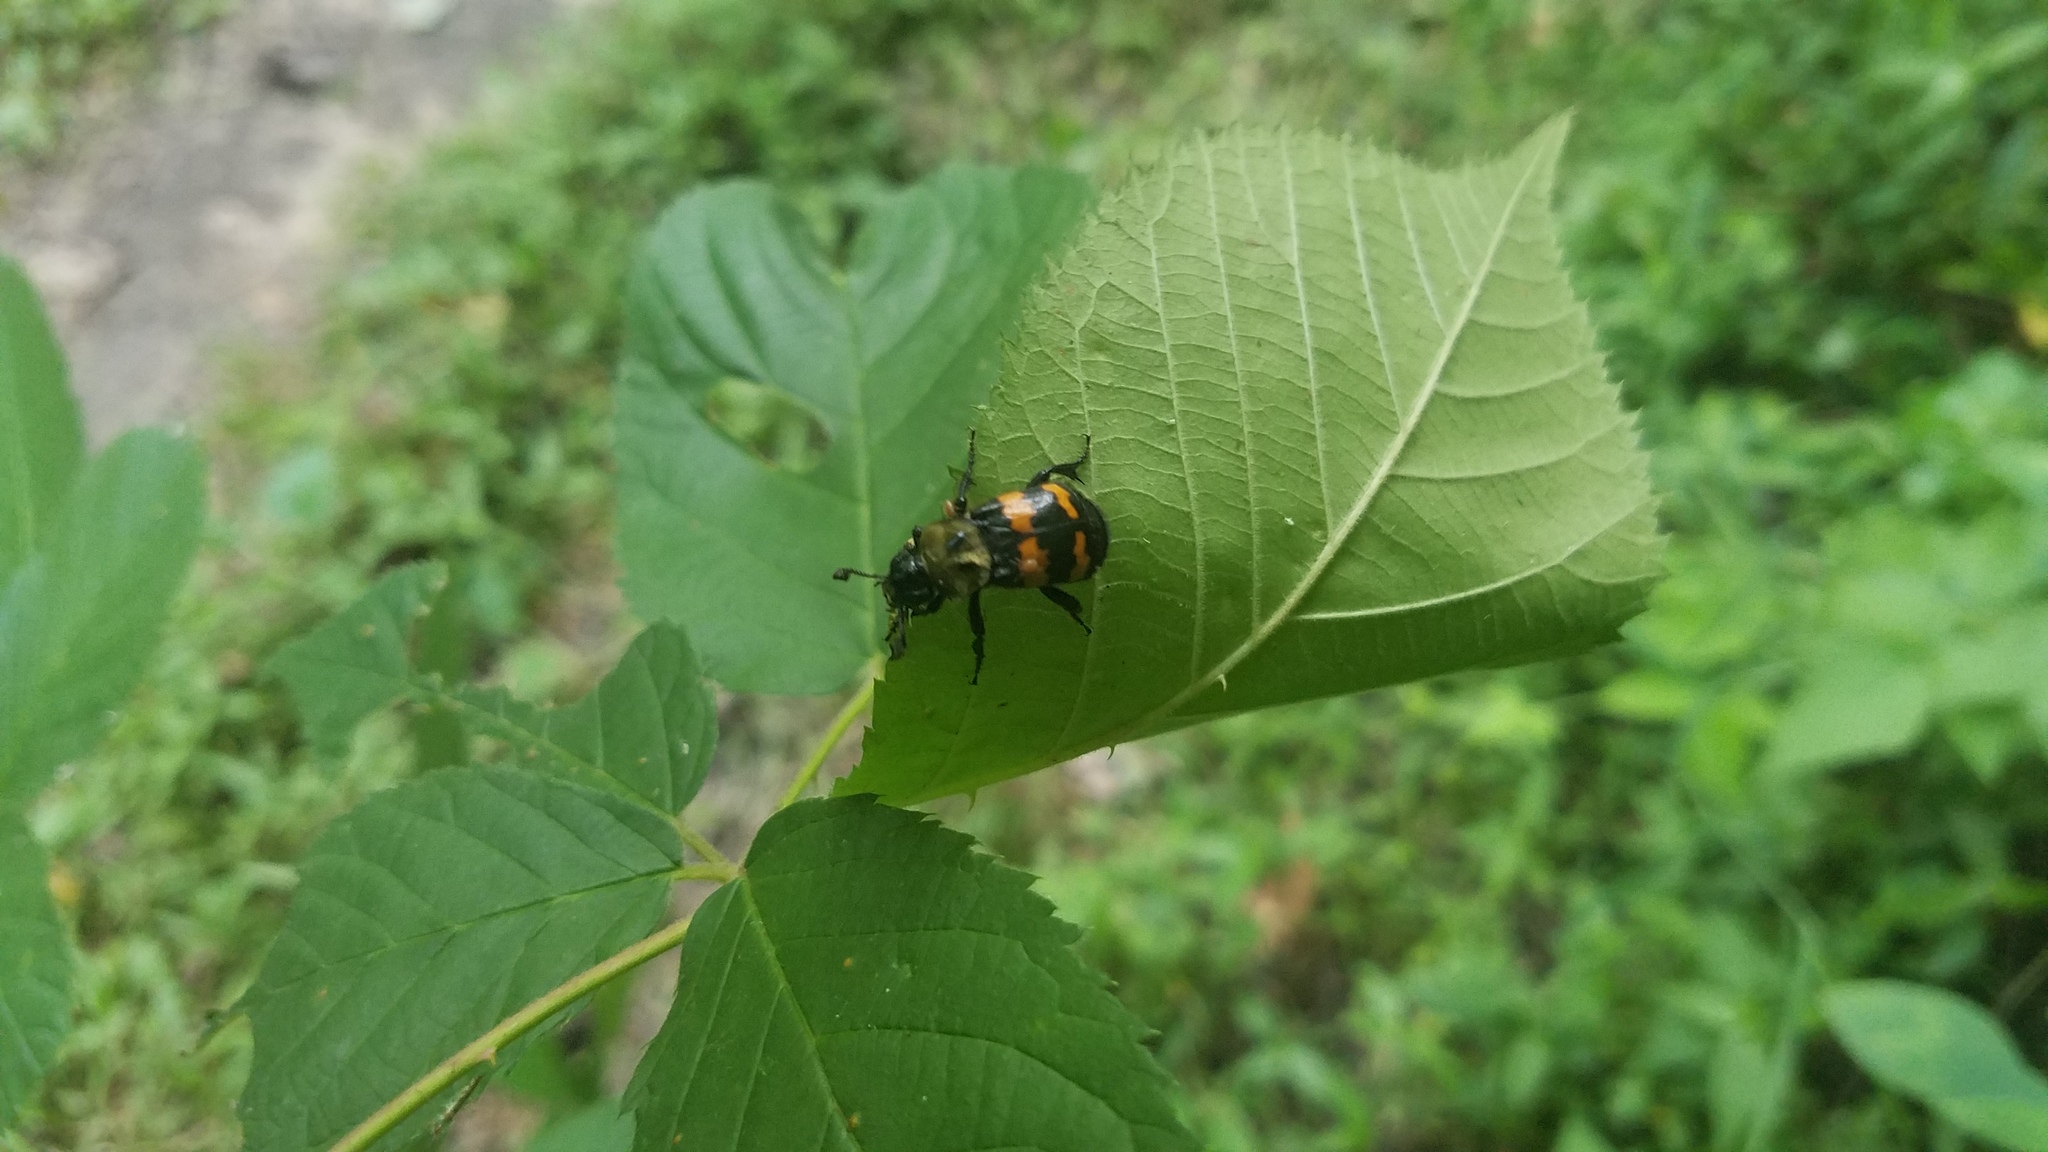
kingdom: Animalia
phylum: Arthropoda
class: Insecta
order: Coleoptera
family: Staphylinidae
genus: Nicrophorus
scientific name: Nicrophorus tomentosus
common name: Tomentose burying beetle
